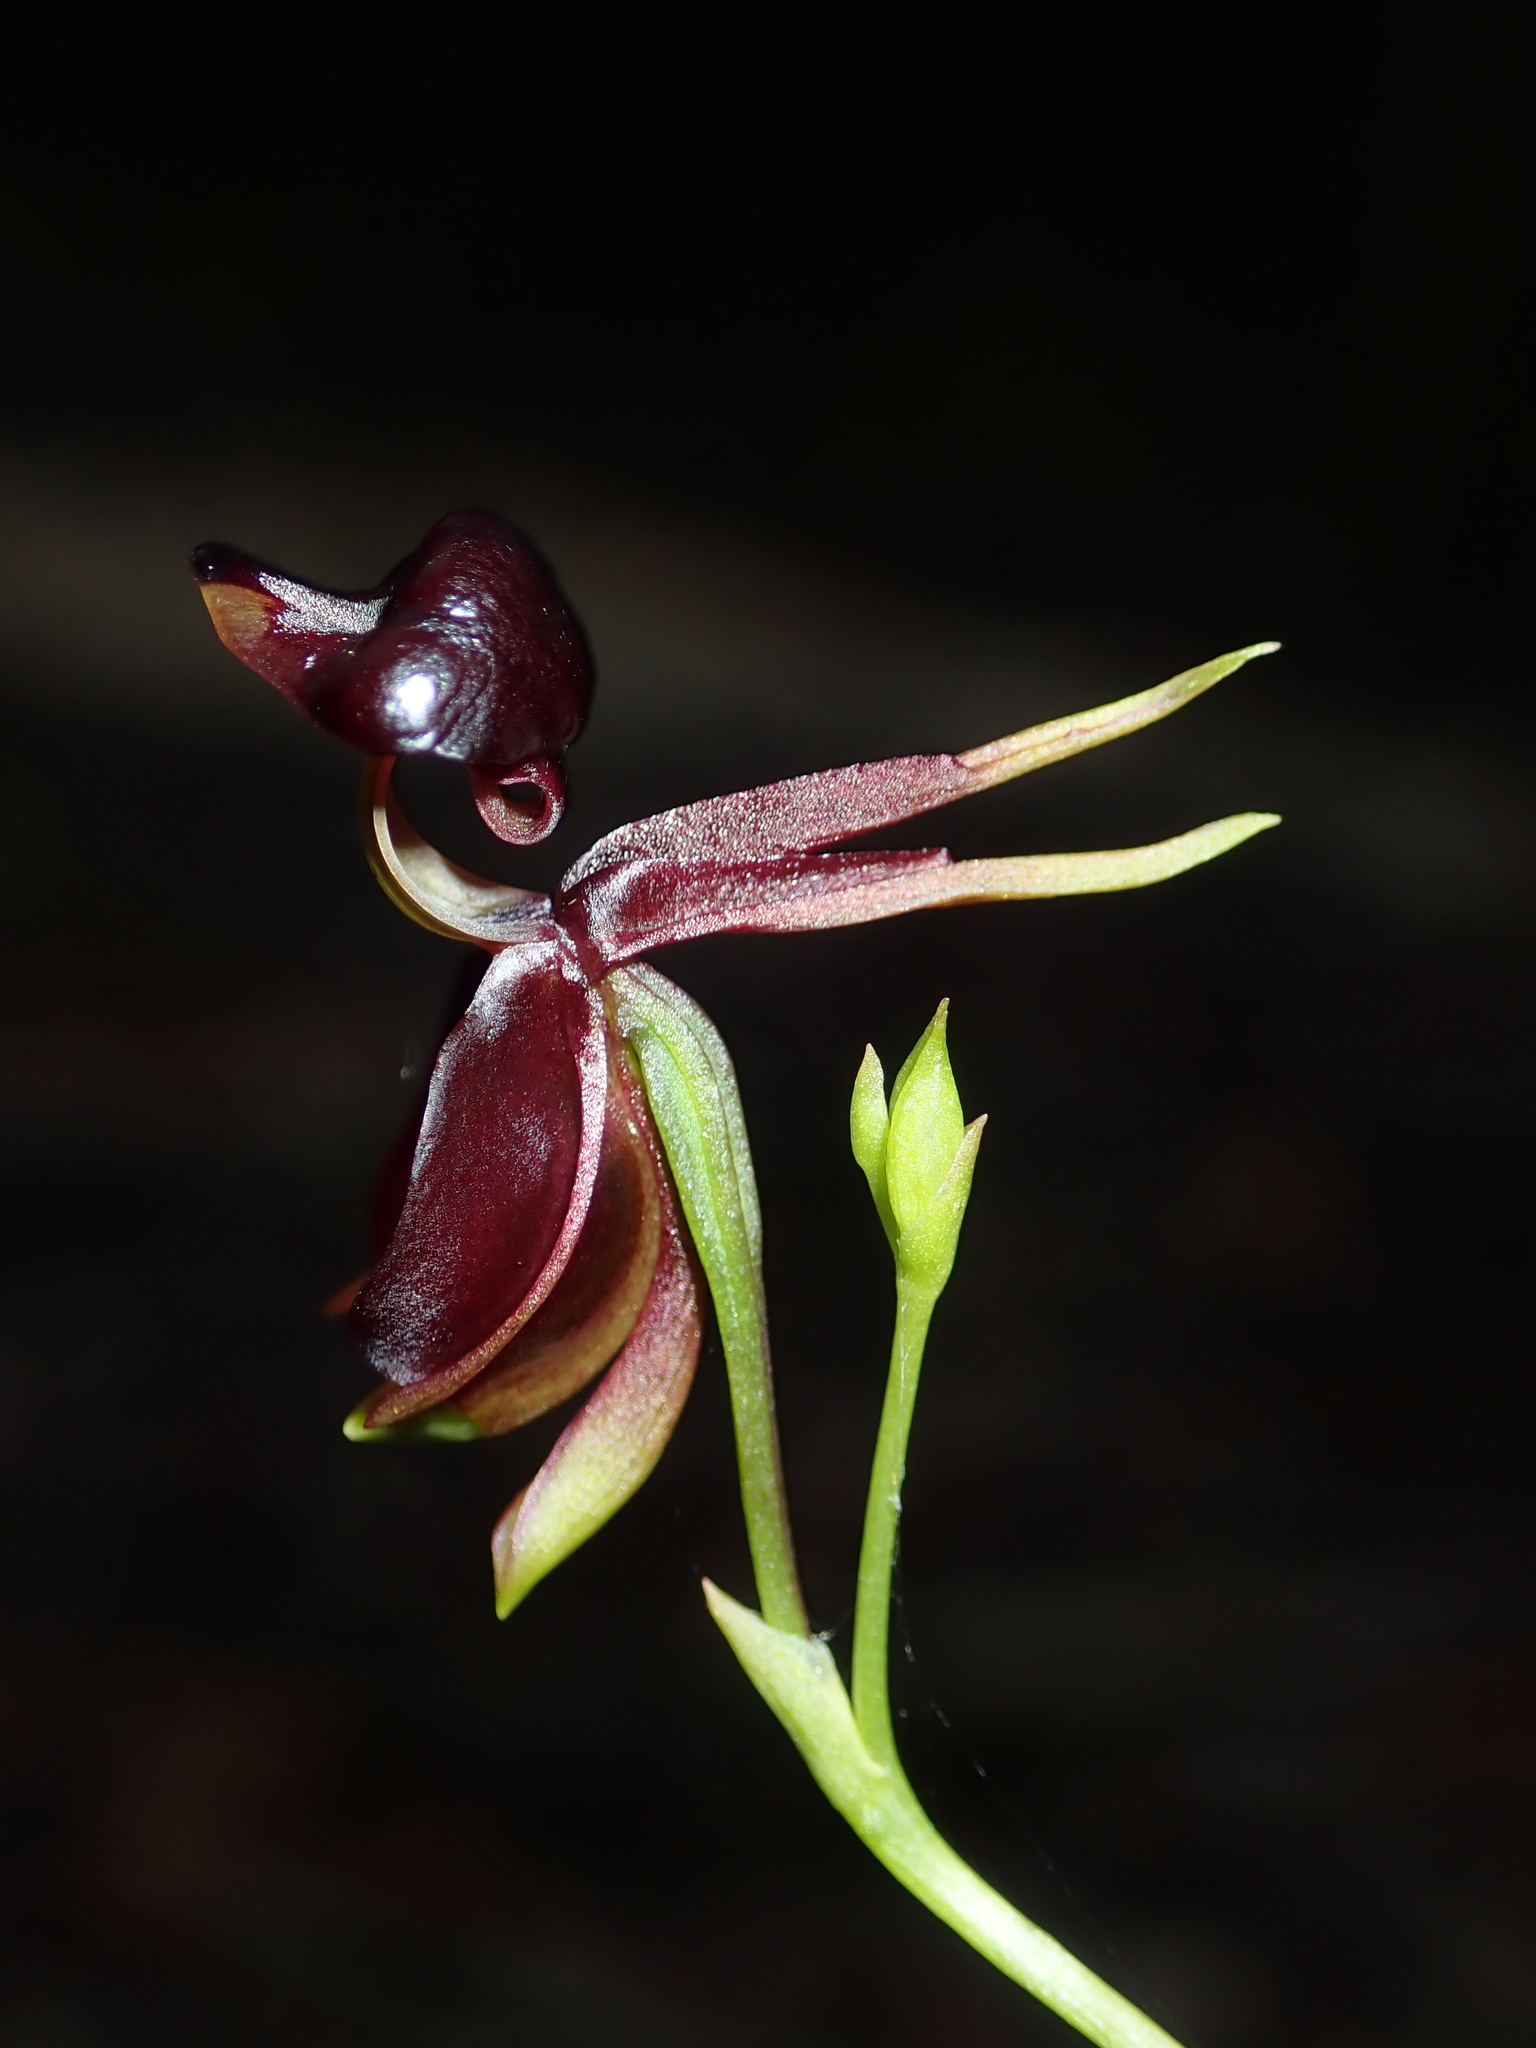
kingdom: Plantae
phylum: Tracheophyta
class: Liliopsida
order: Asparagales
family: Orchidaceae
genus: Caleana
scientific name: Caleana major
